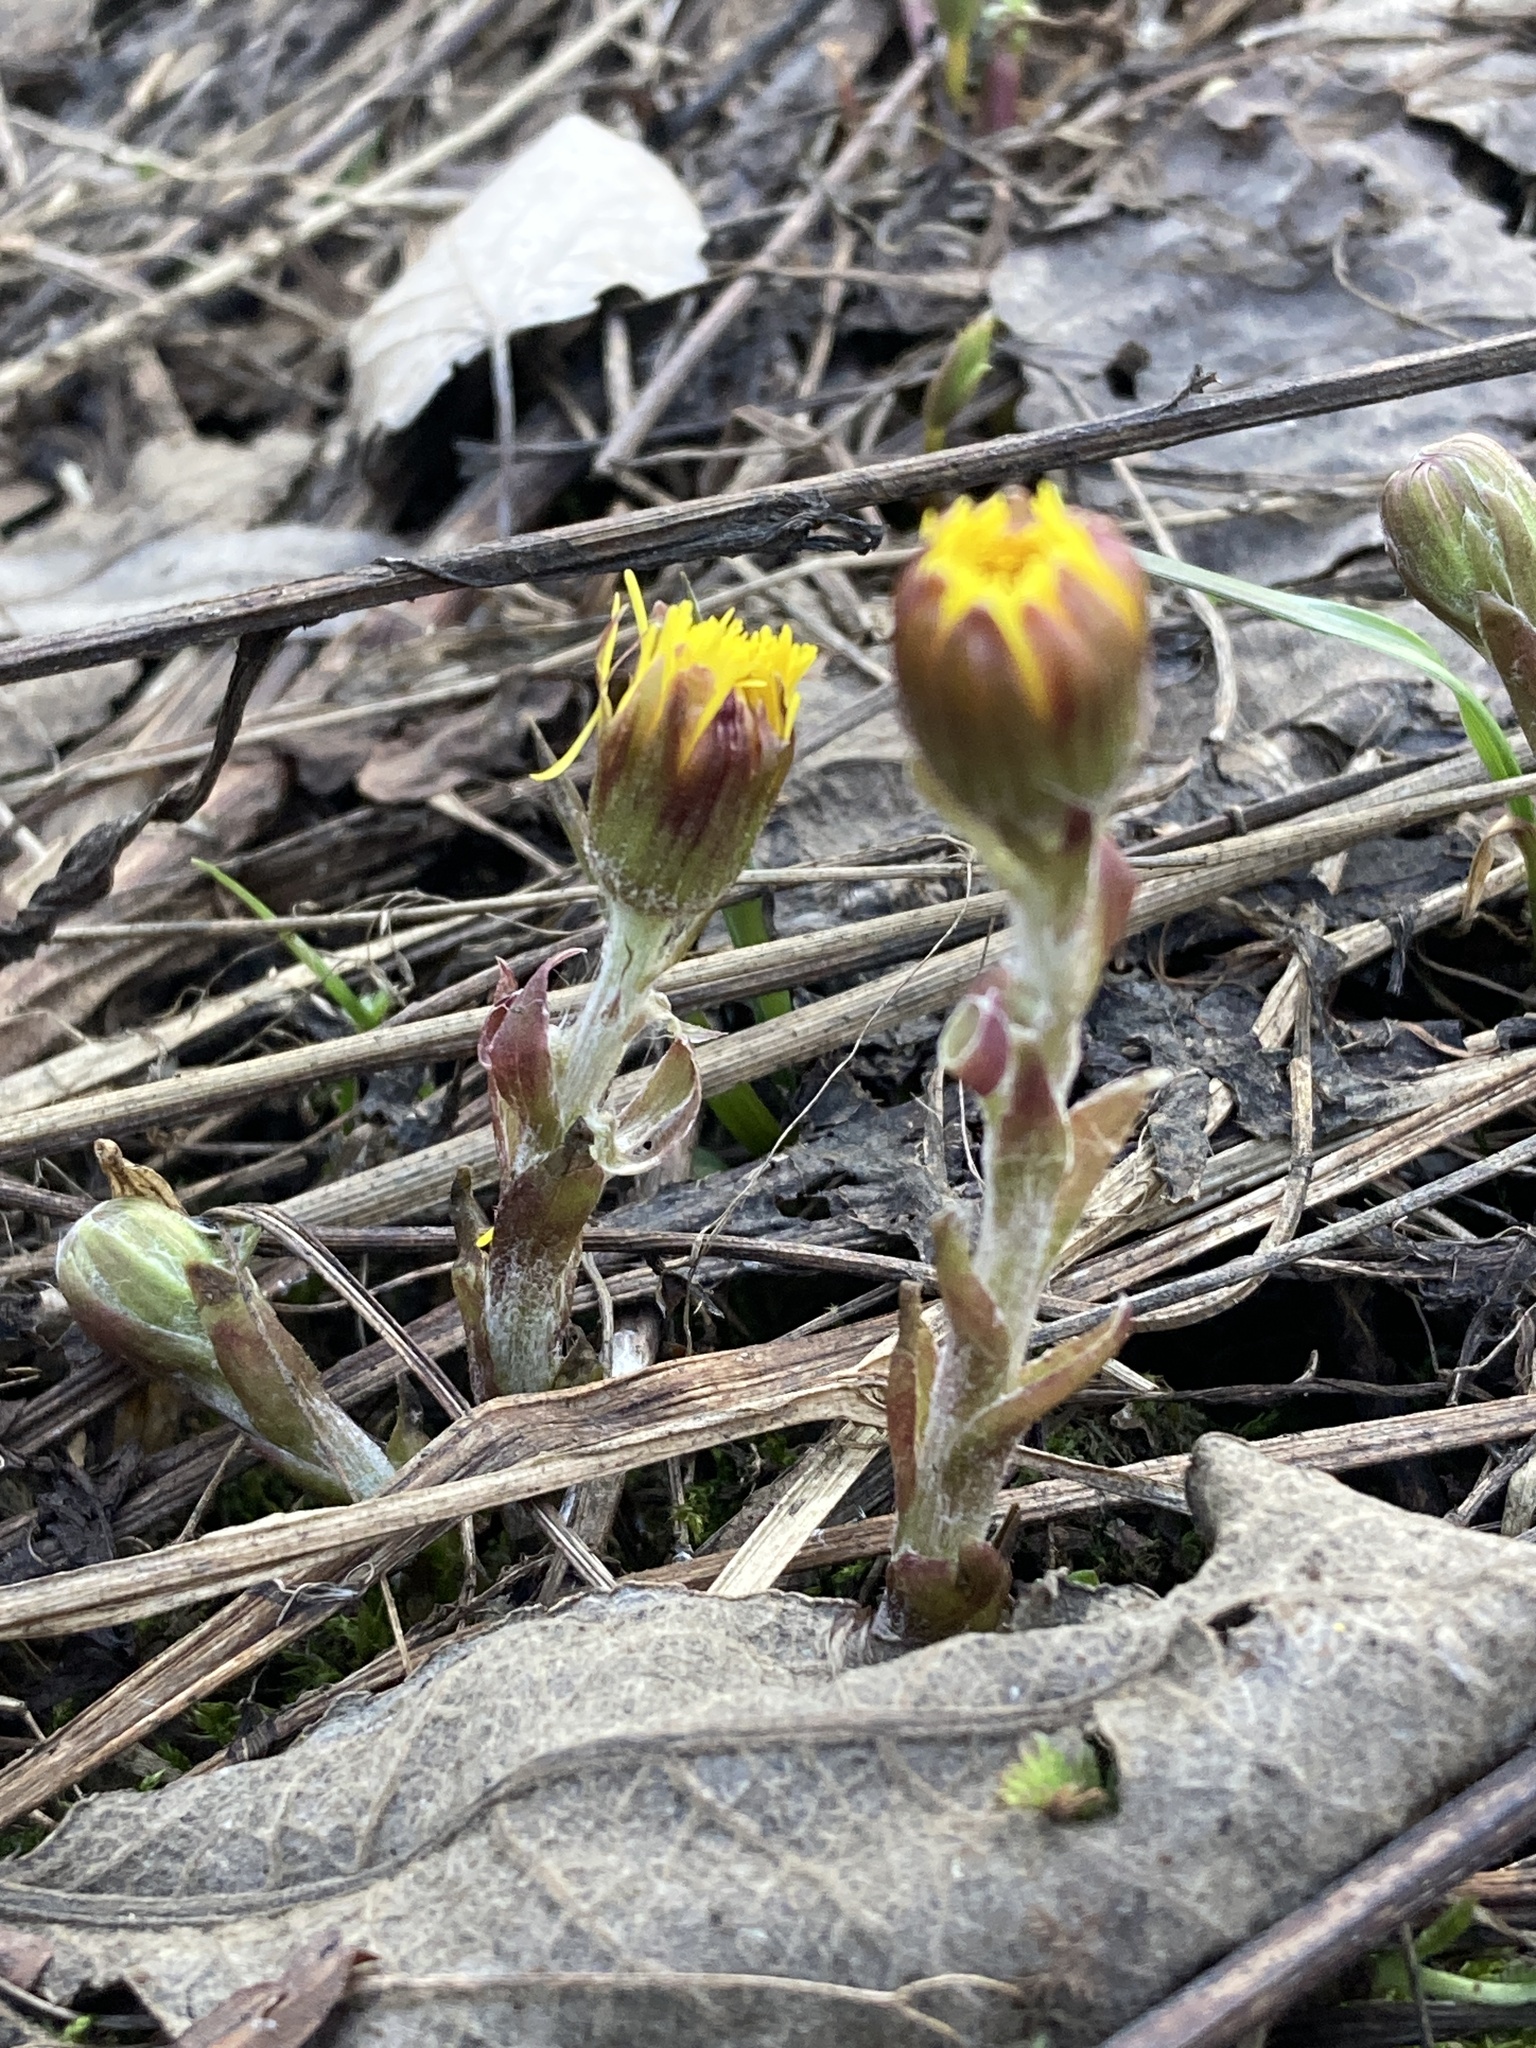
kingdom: Plantae
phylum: Tracheophyta
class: Magnoliopsida
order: Asterales
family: Asteraceae
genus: Tussilago
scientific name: Tussilago farfara
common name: Coltsfoot
